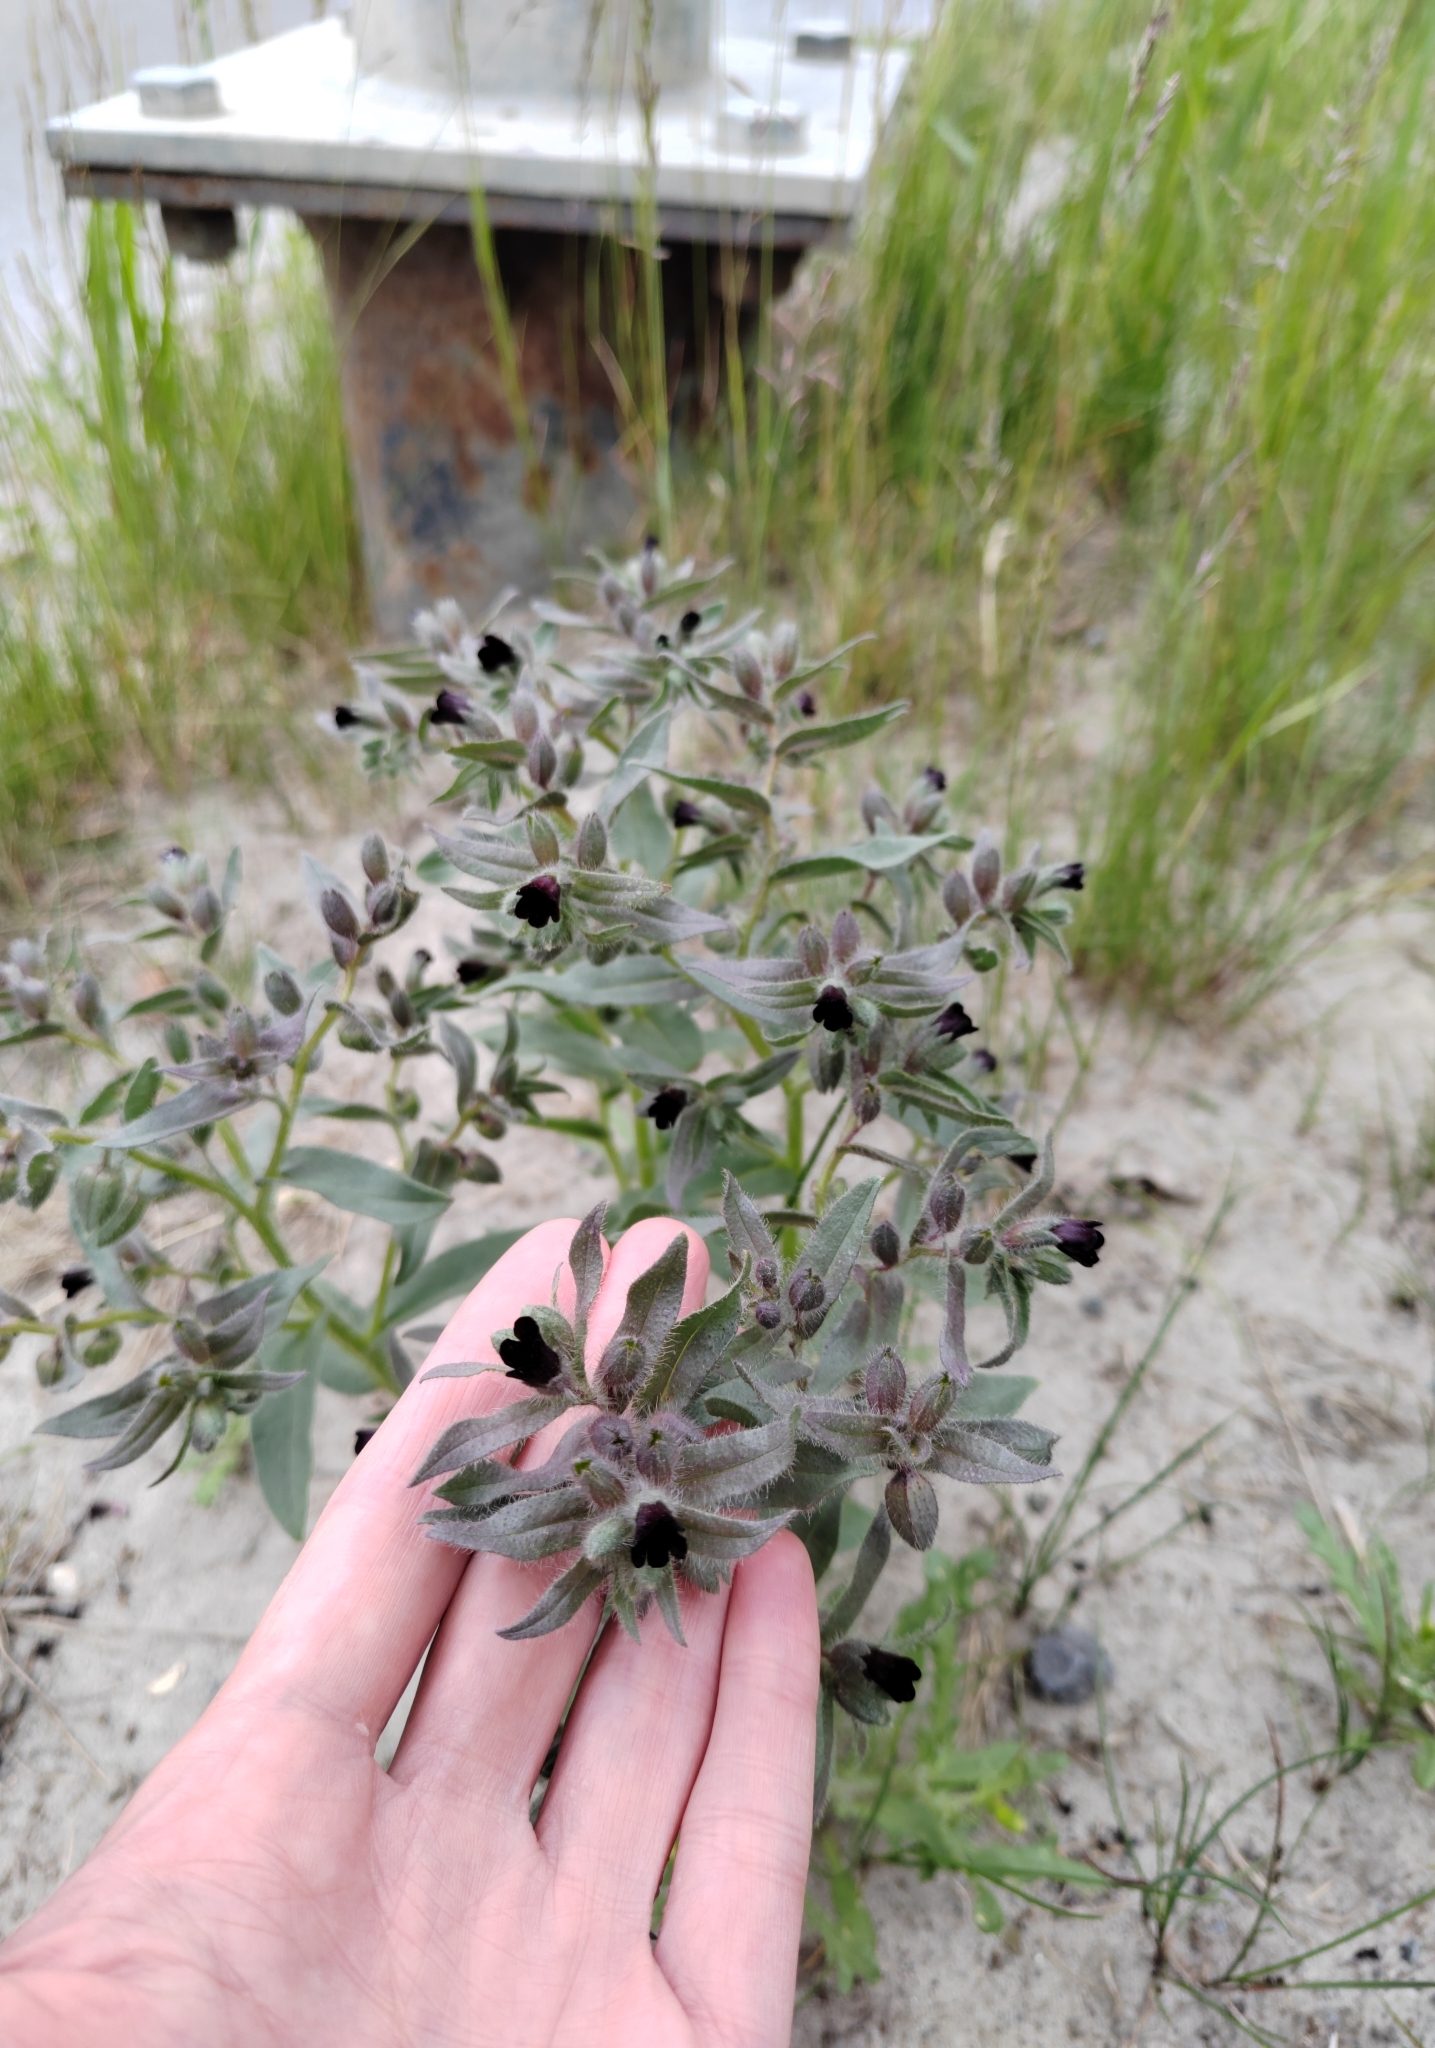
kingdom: Plantae
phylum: Tracheophyta
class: Magnoliopsida
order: Boraginales
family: Boraginaceae
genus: Nonea
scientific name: Nonea pulla
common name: Brown nonea
